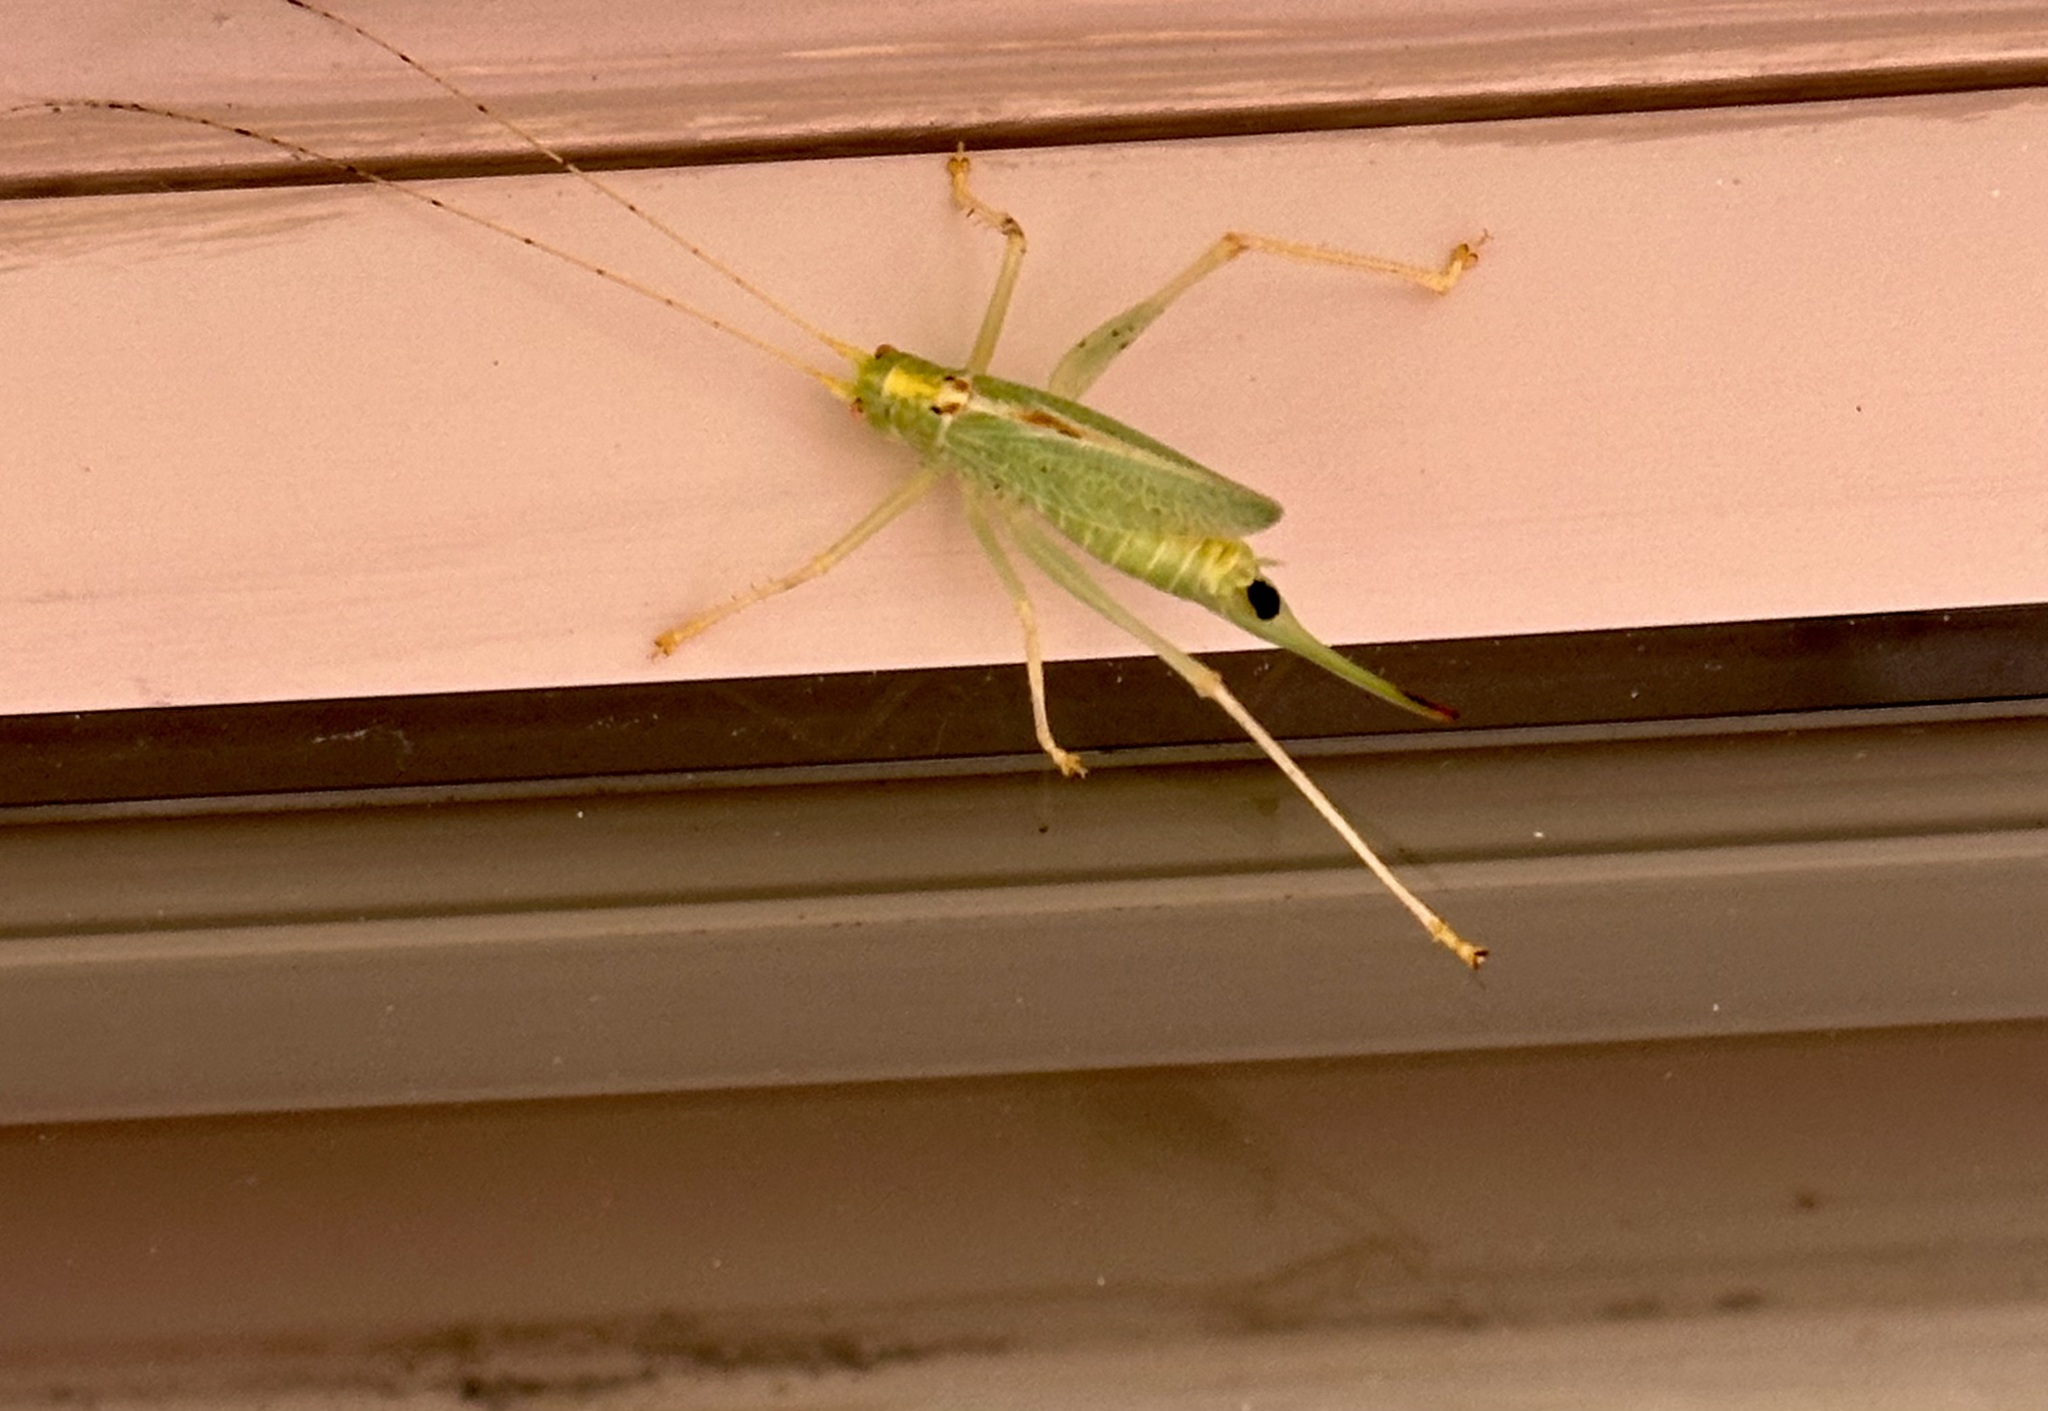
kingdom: Animalia
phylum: Arthropoda
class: Insecta
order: Orthoptera
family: Tettigoniidae
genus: Meconema
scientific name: Meconema thalassinum
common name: Oak bush-cricket
